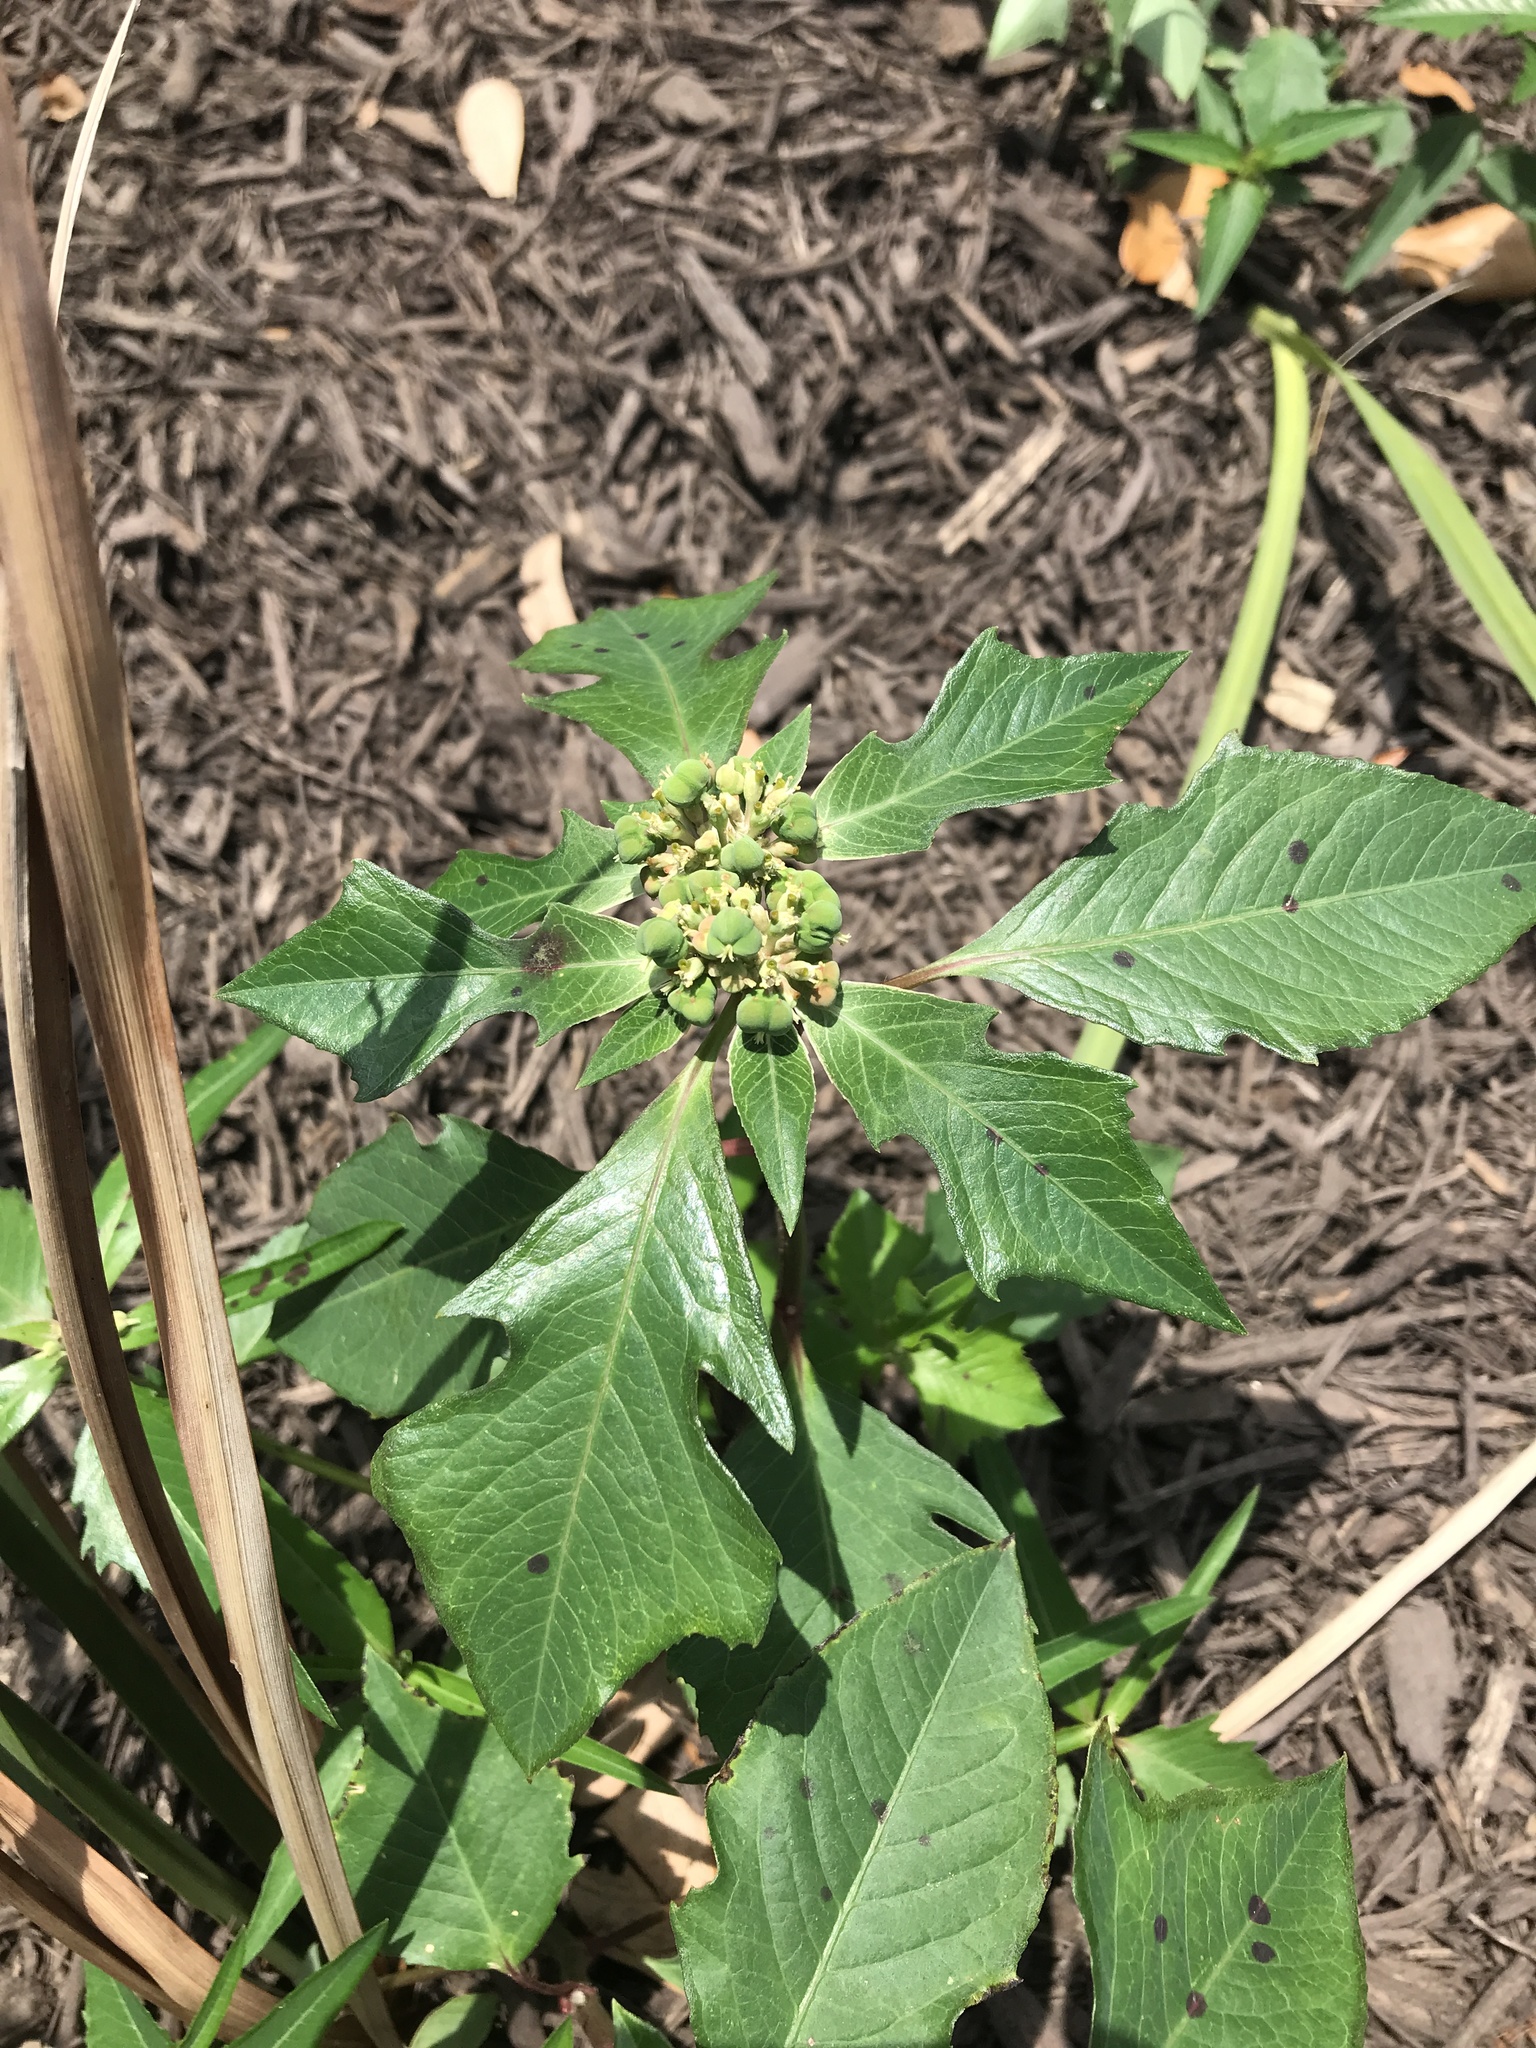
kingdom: Plantae
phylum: Tracheophyta
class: Magnoliopsida
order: Malpighiales
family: Euphorbiaceae
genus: Euphorbia
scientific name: Euphorbia heterophylla
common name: Mexican fireplant
